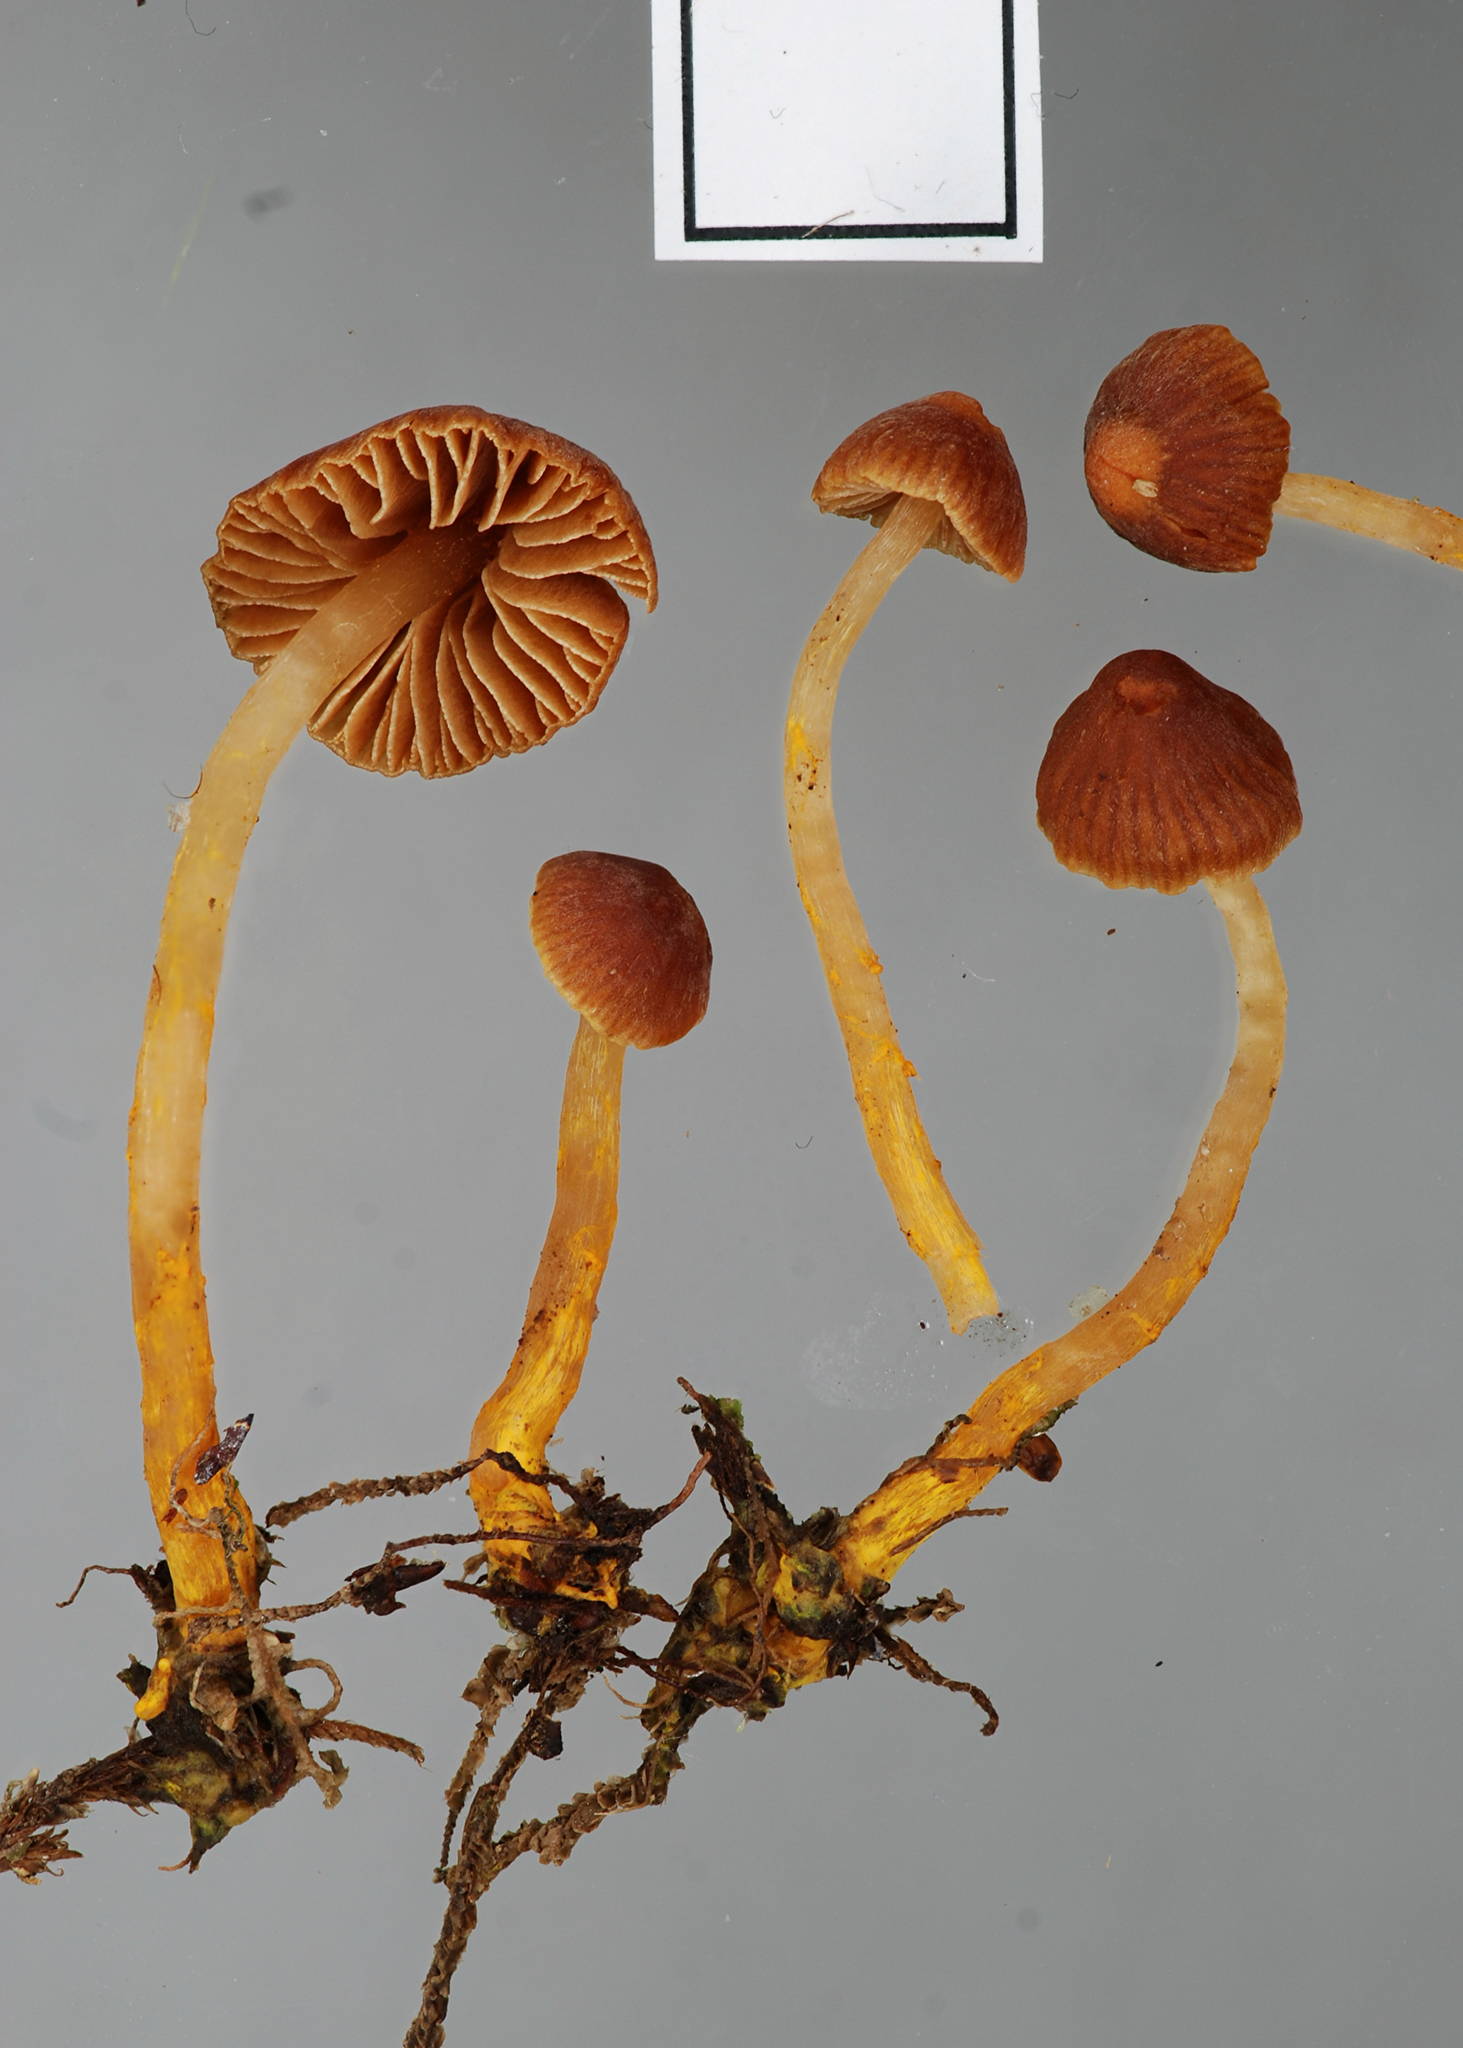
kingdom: Fungi
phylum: Basidiomycota
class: Agaricomycetes
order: Agaricales
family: Cortinariaceae
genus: Cortinarius
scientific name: Cortinarius malosinae
